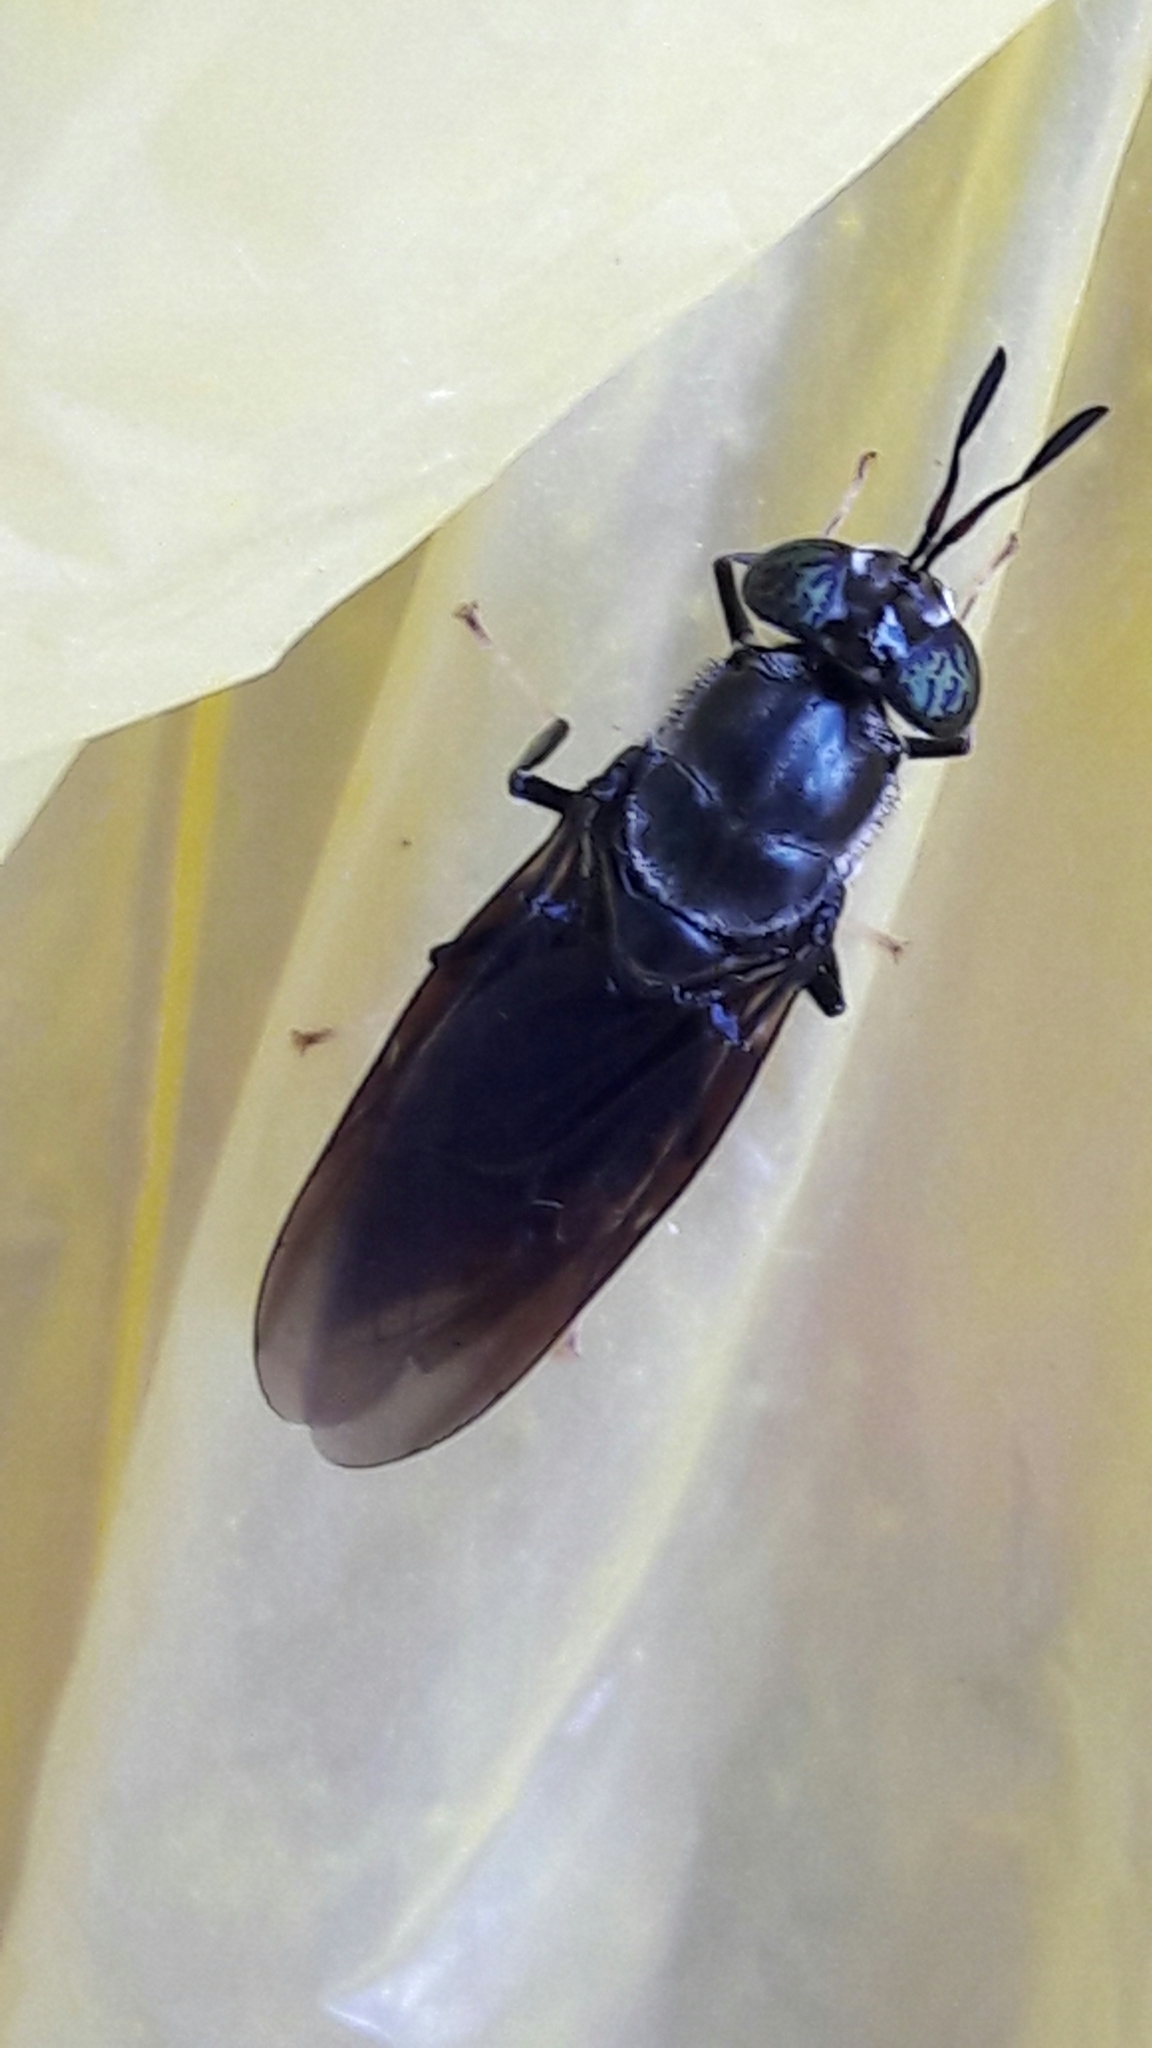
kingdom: Animalia
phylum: Arthropoda
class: Insecta
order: Diptera
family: Stratiomyidae
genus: Hermetia
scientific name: Hermetia illucens
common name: Black soldier fly
